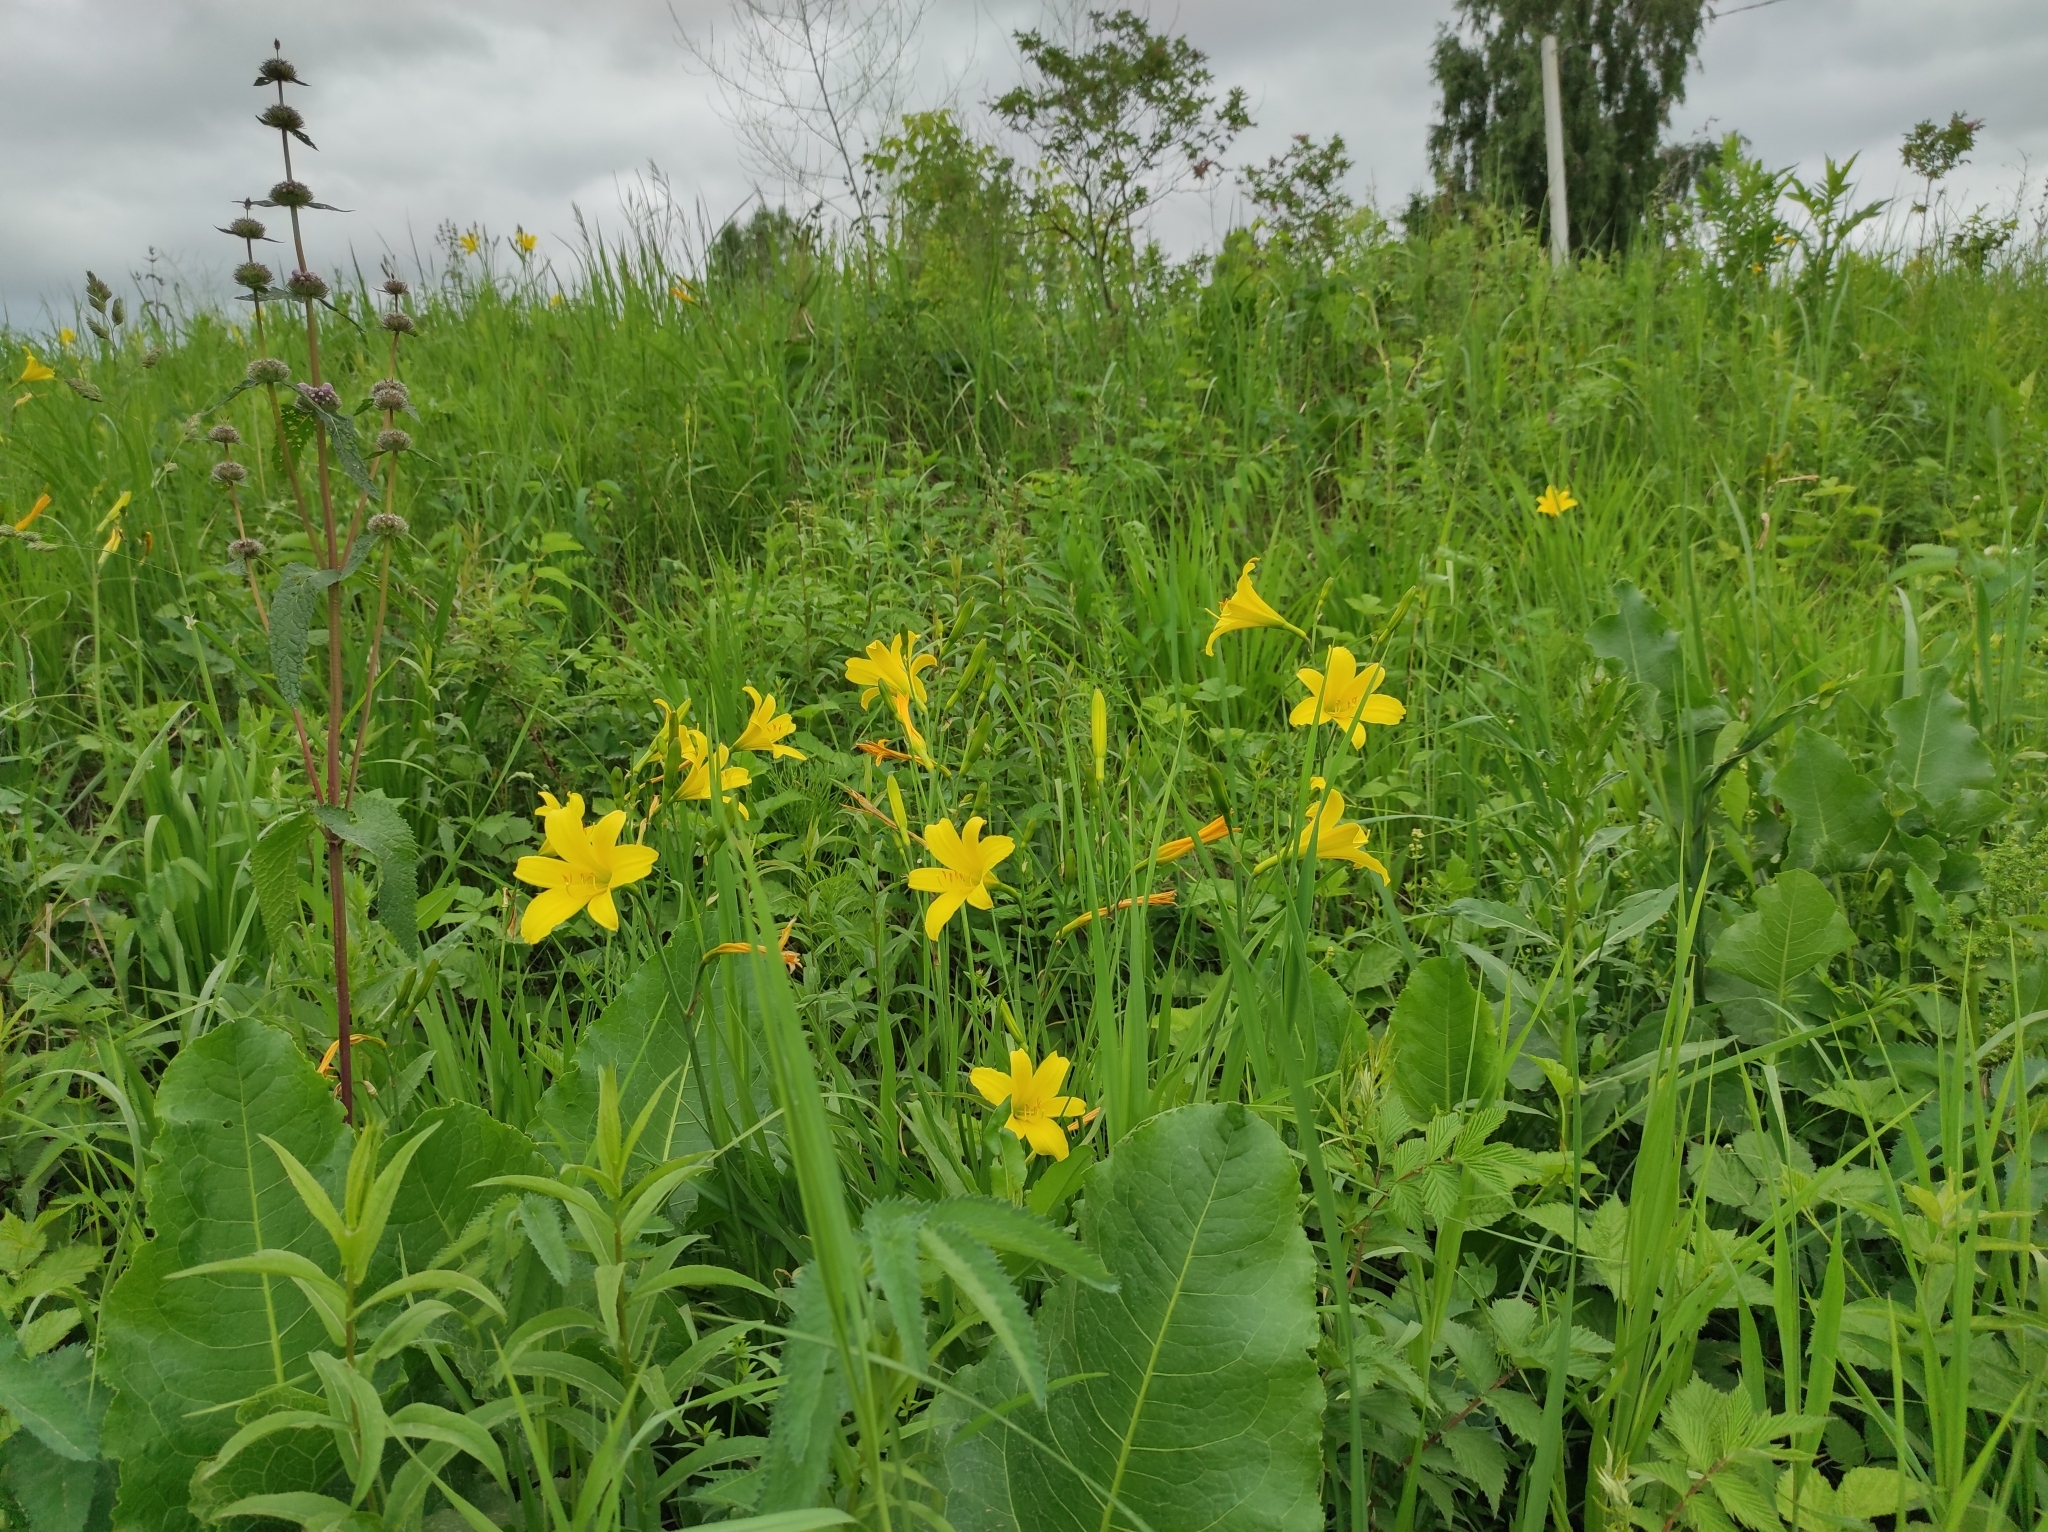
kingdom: Plantae
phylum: Tracheophyta
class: Liliopsida
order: Asparagales
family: Asphodelaceae
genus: Hemerocallis
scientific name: Hemerocallis minor
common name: Small daylily
